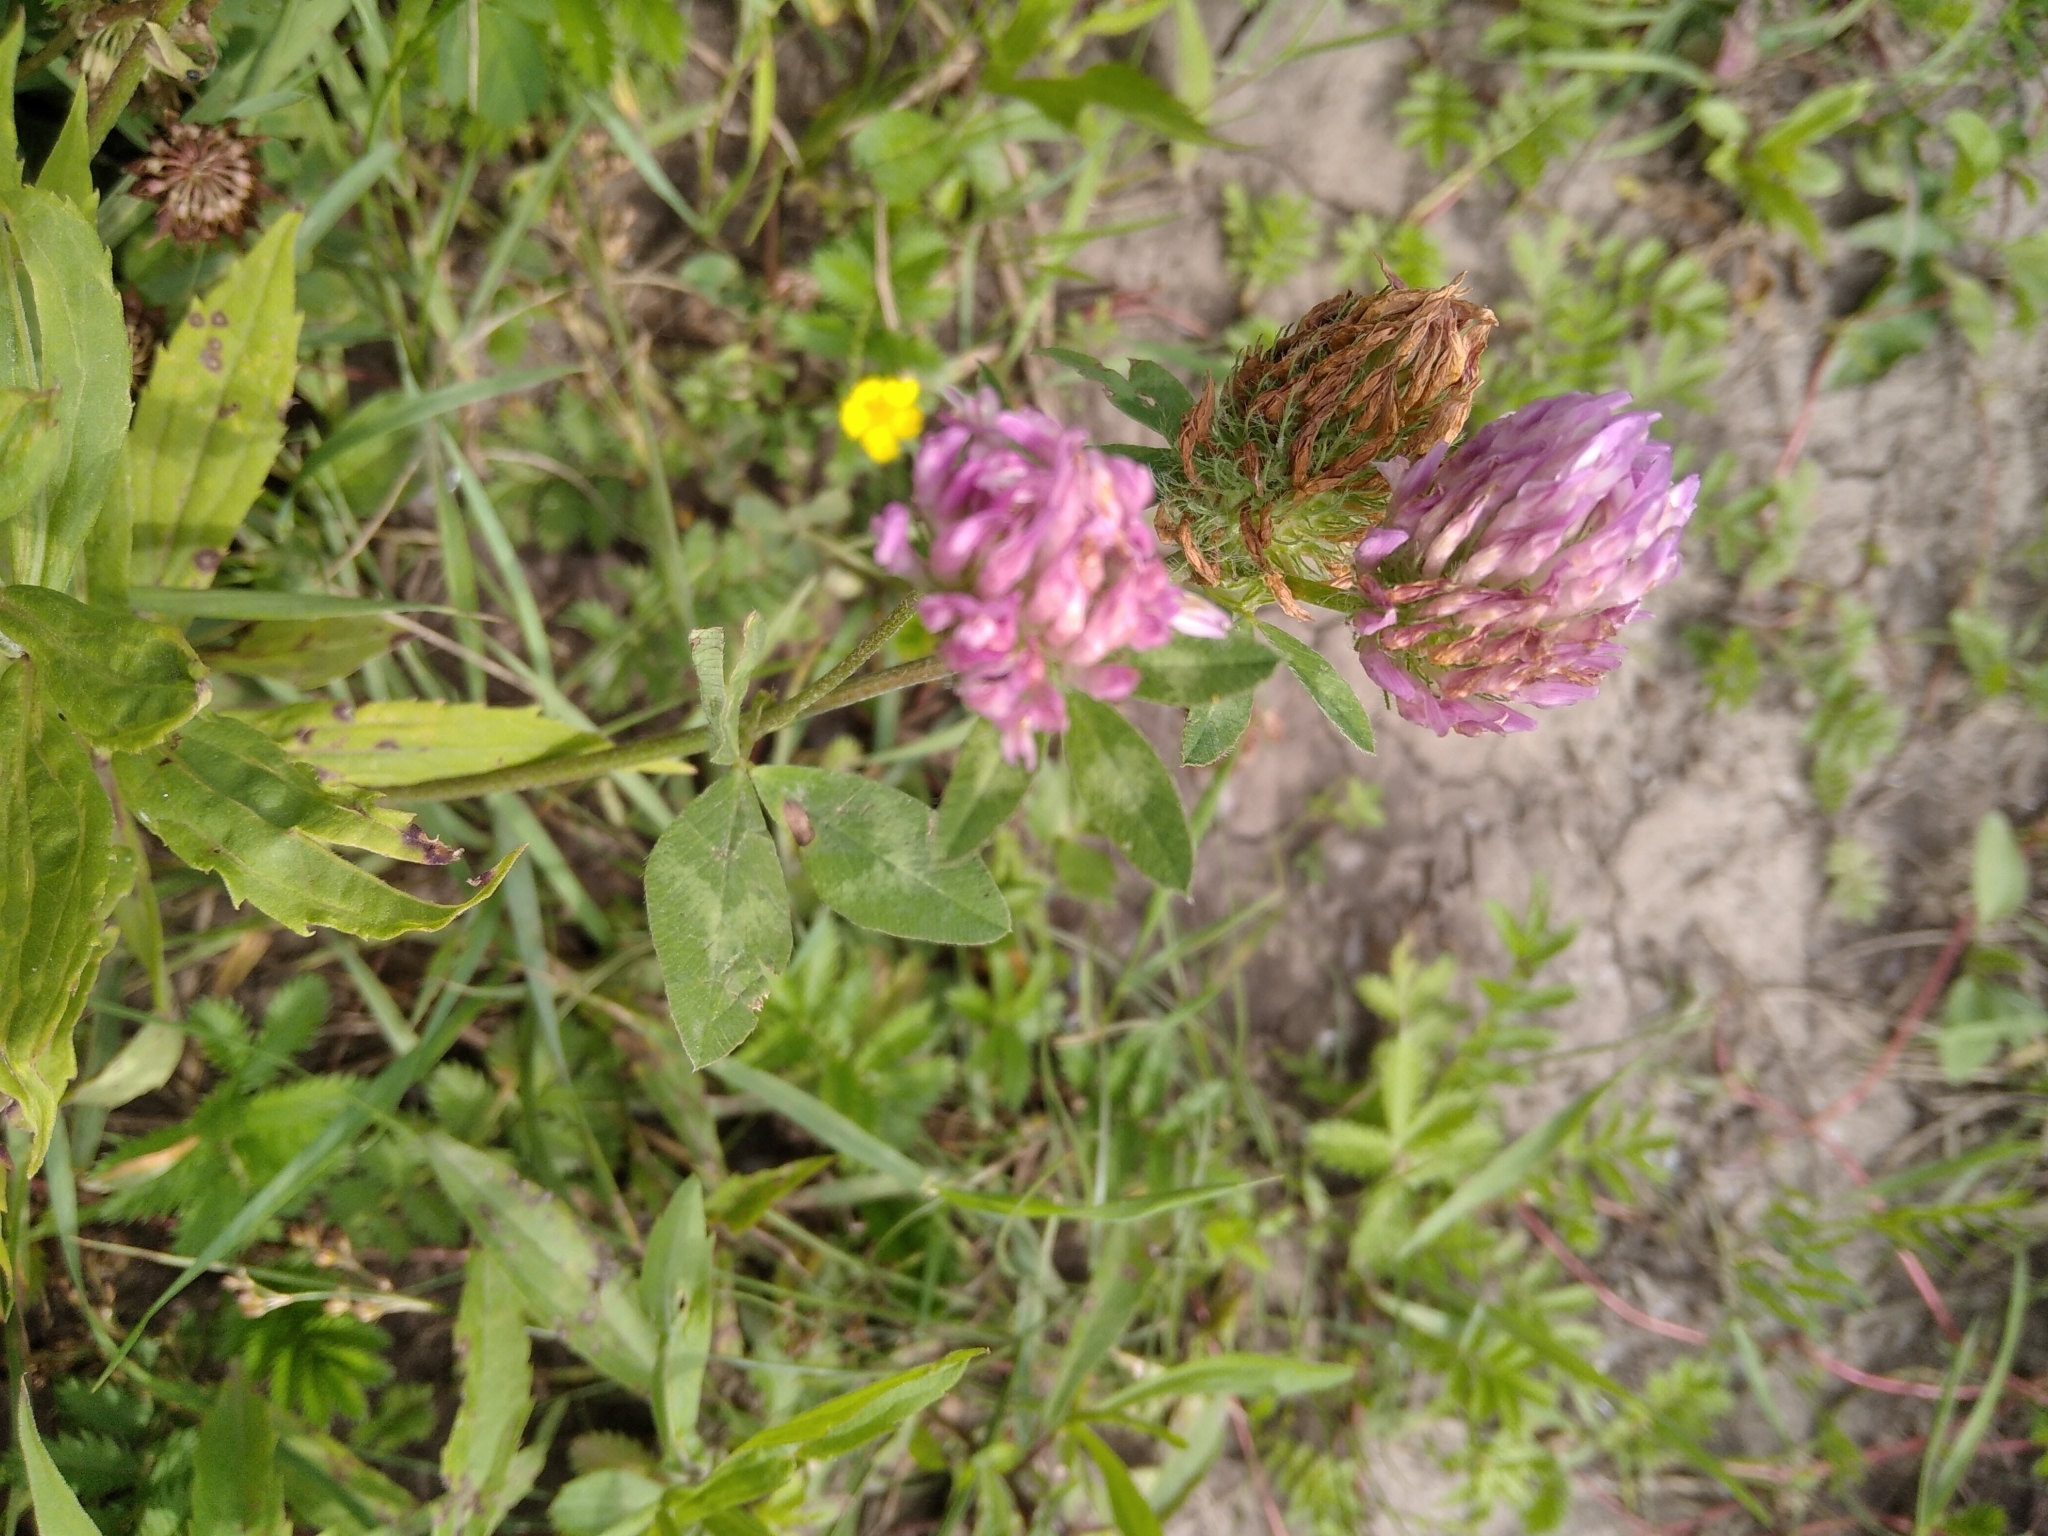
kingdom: Plantae
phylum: Tracheophyta
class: Magnoliopsida
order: Fabales
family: Fabaceae
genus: Trifolium
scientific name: Trifolium pratense
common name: Red clover
